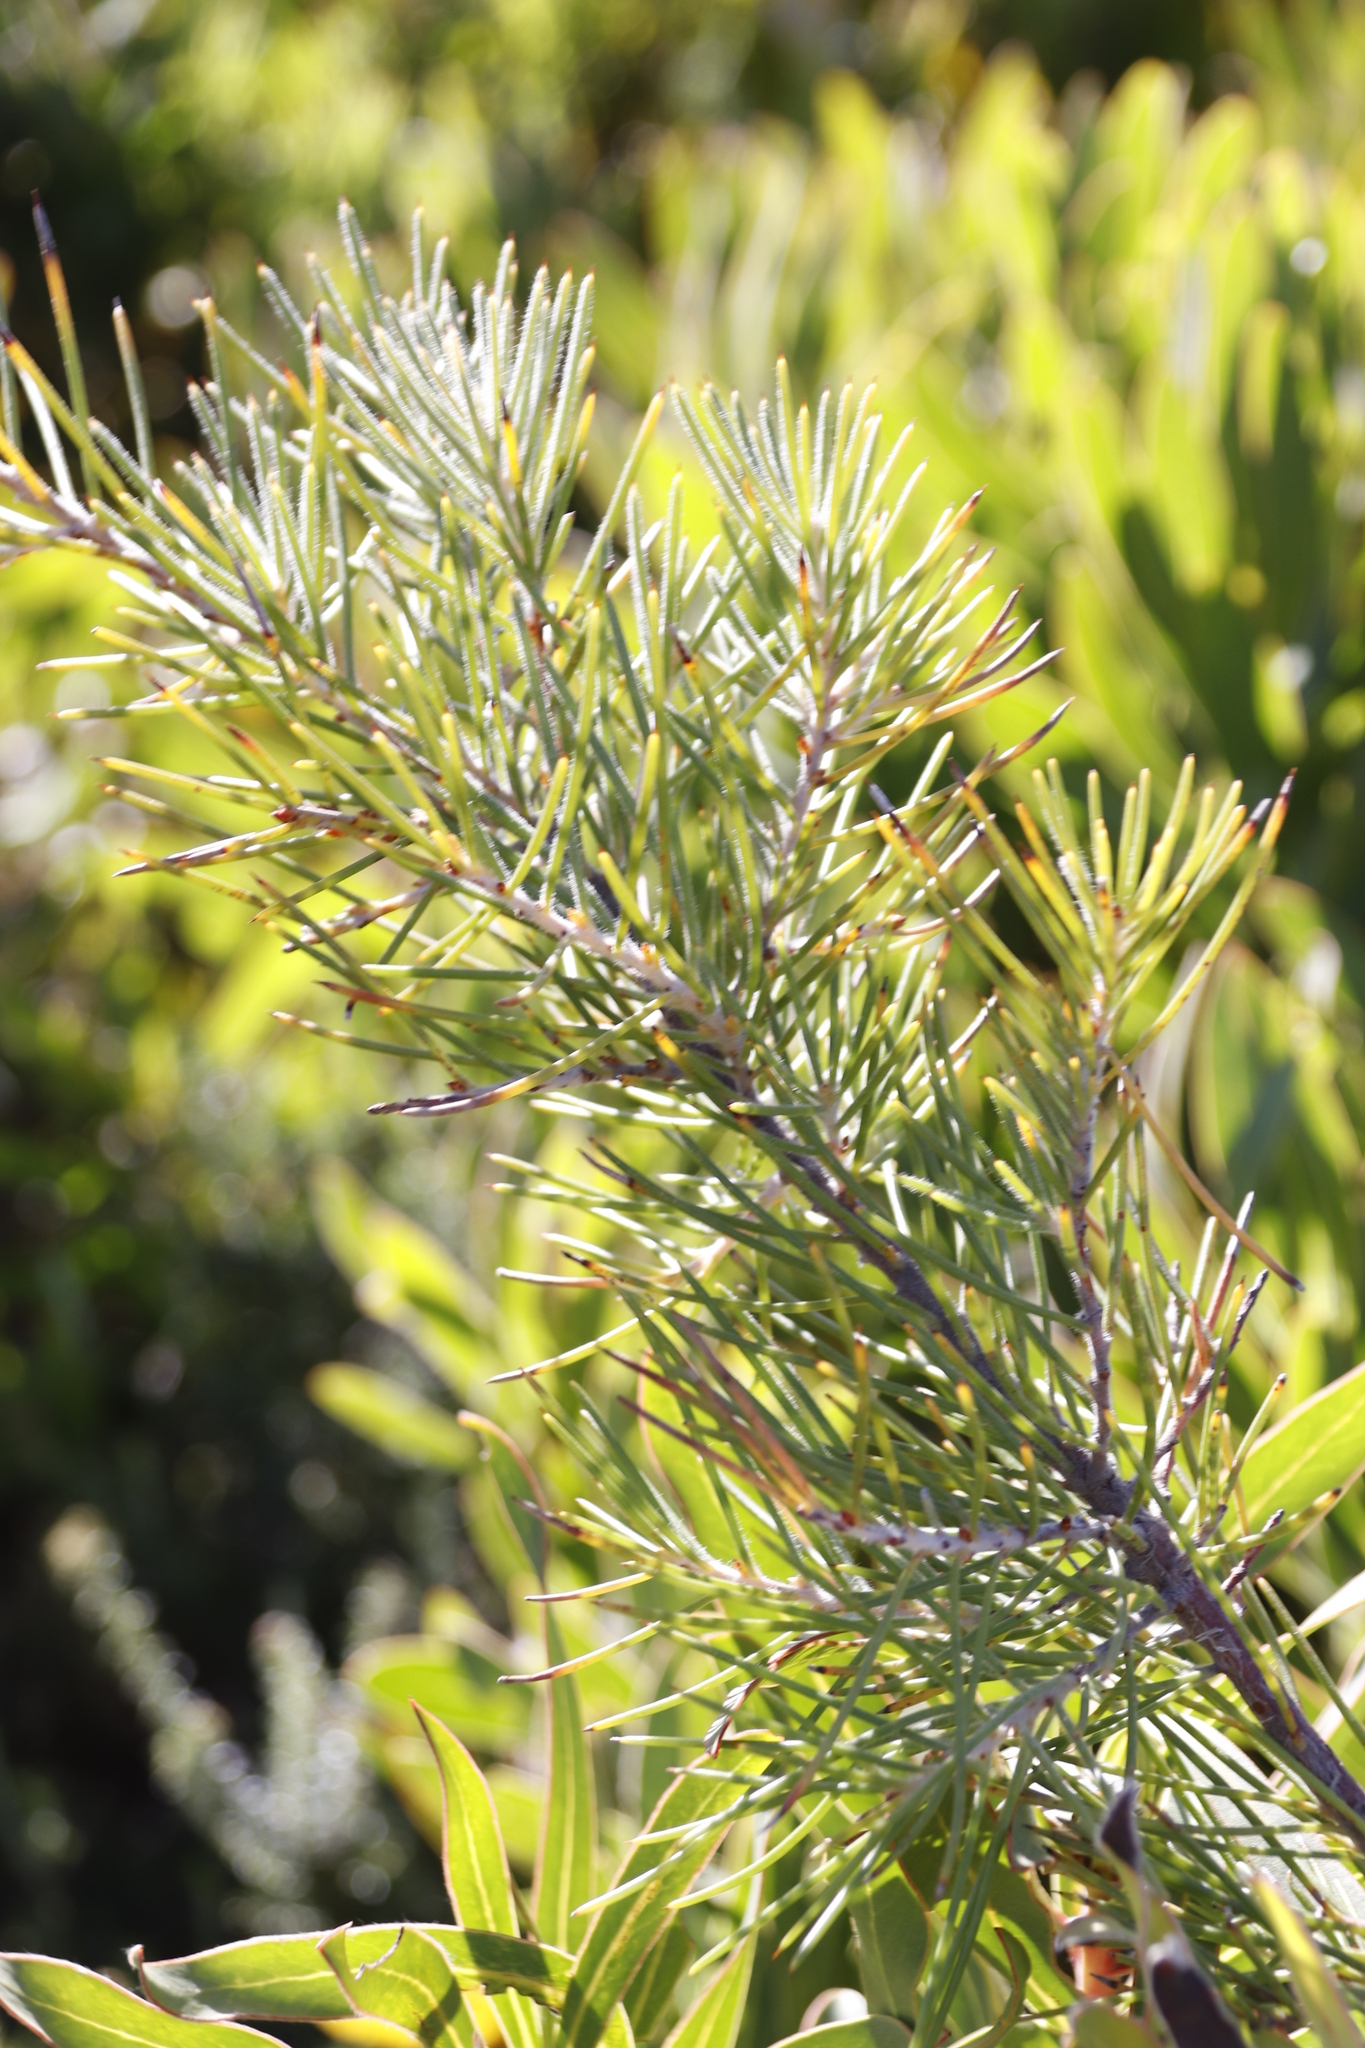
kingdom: Plantae
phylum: Tracheophyta
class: Magnoliopsida
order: Proteales
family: Proteaceae
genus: Hakea
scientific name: Hakea gibbosa
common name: Rock hakea
